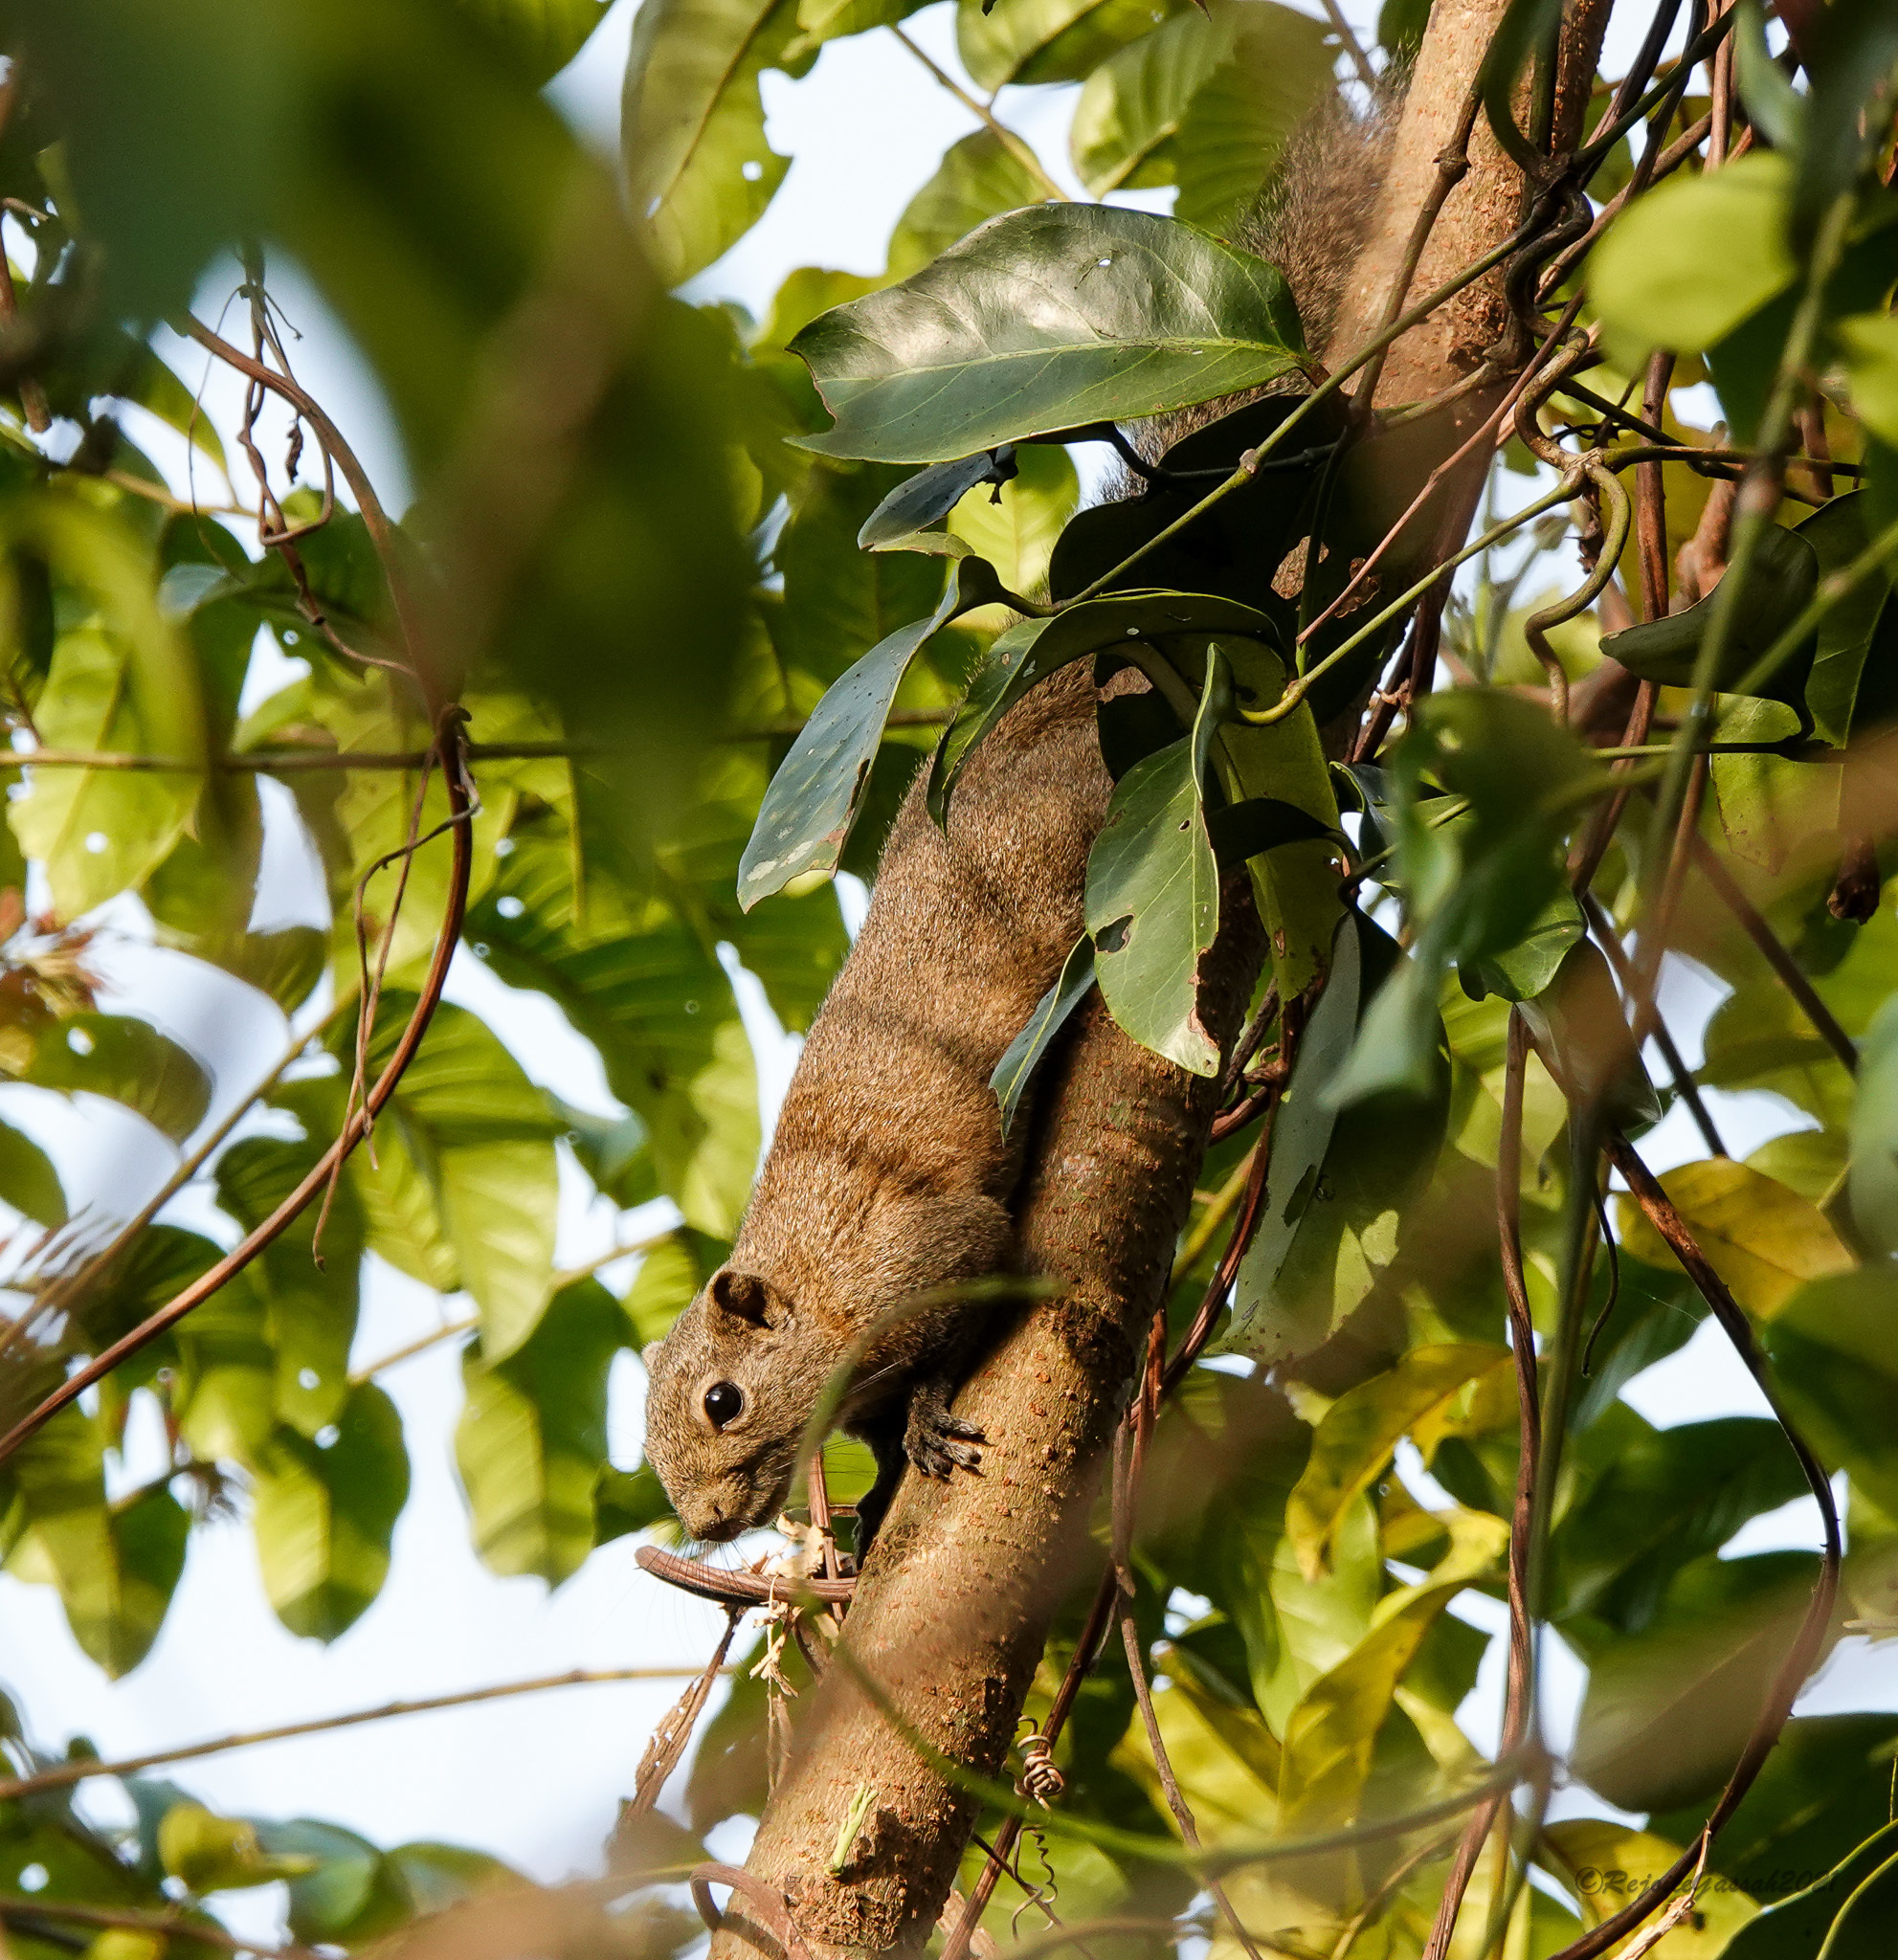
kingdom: Animalia
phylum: Chordata
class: Mammalia
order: Rodentia
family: Sciuridae
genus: Callosciurus
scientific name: Callosciurus pygerythrus
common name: Irrawaddy squirrel
